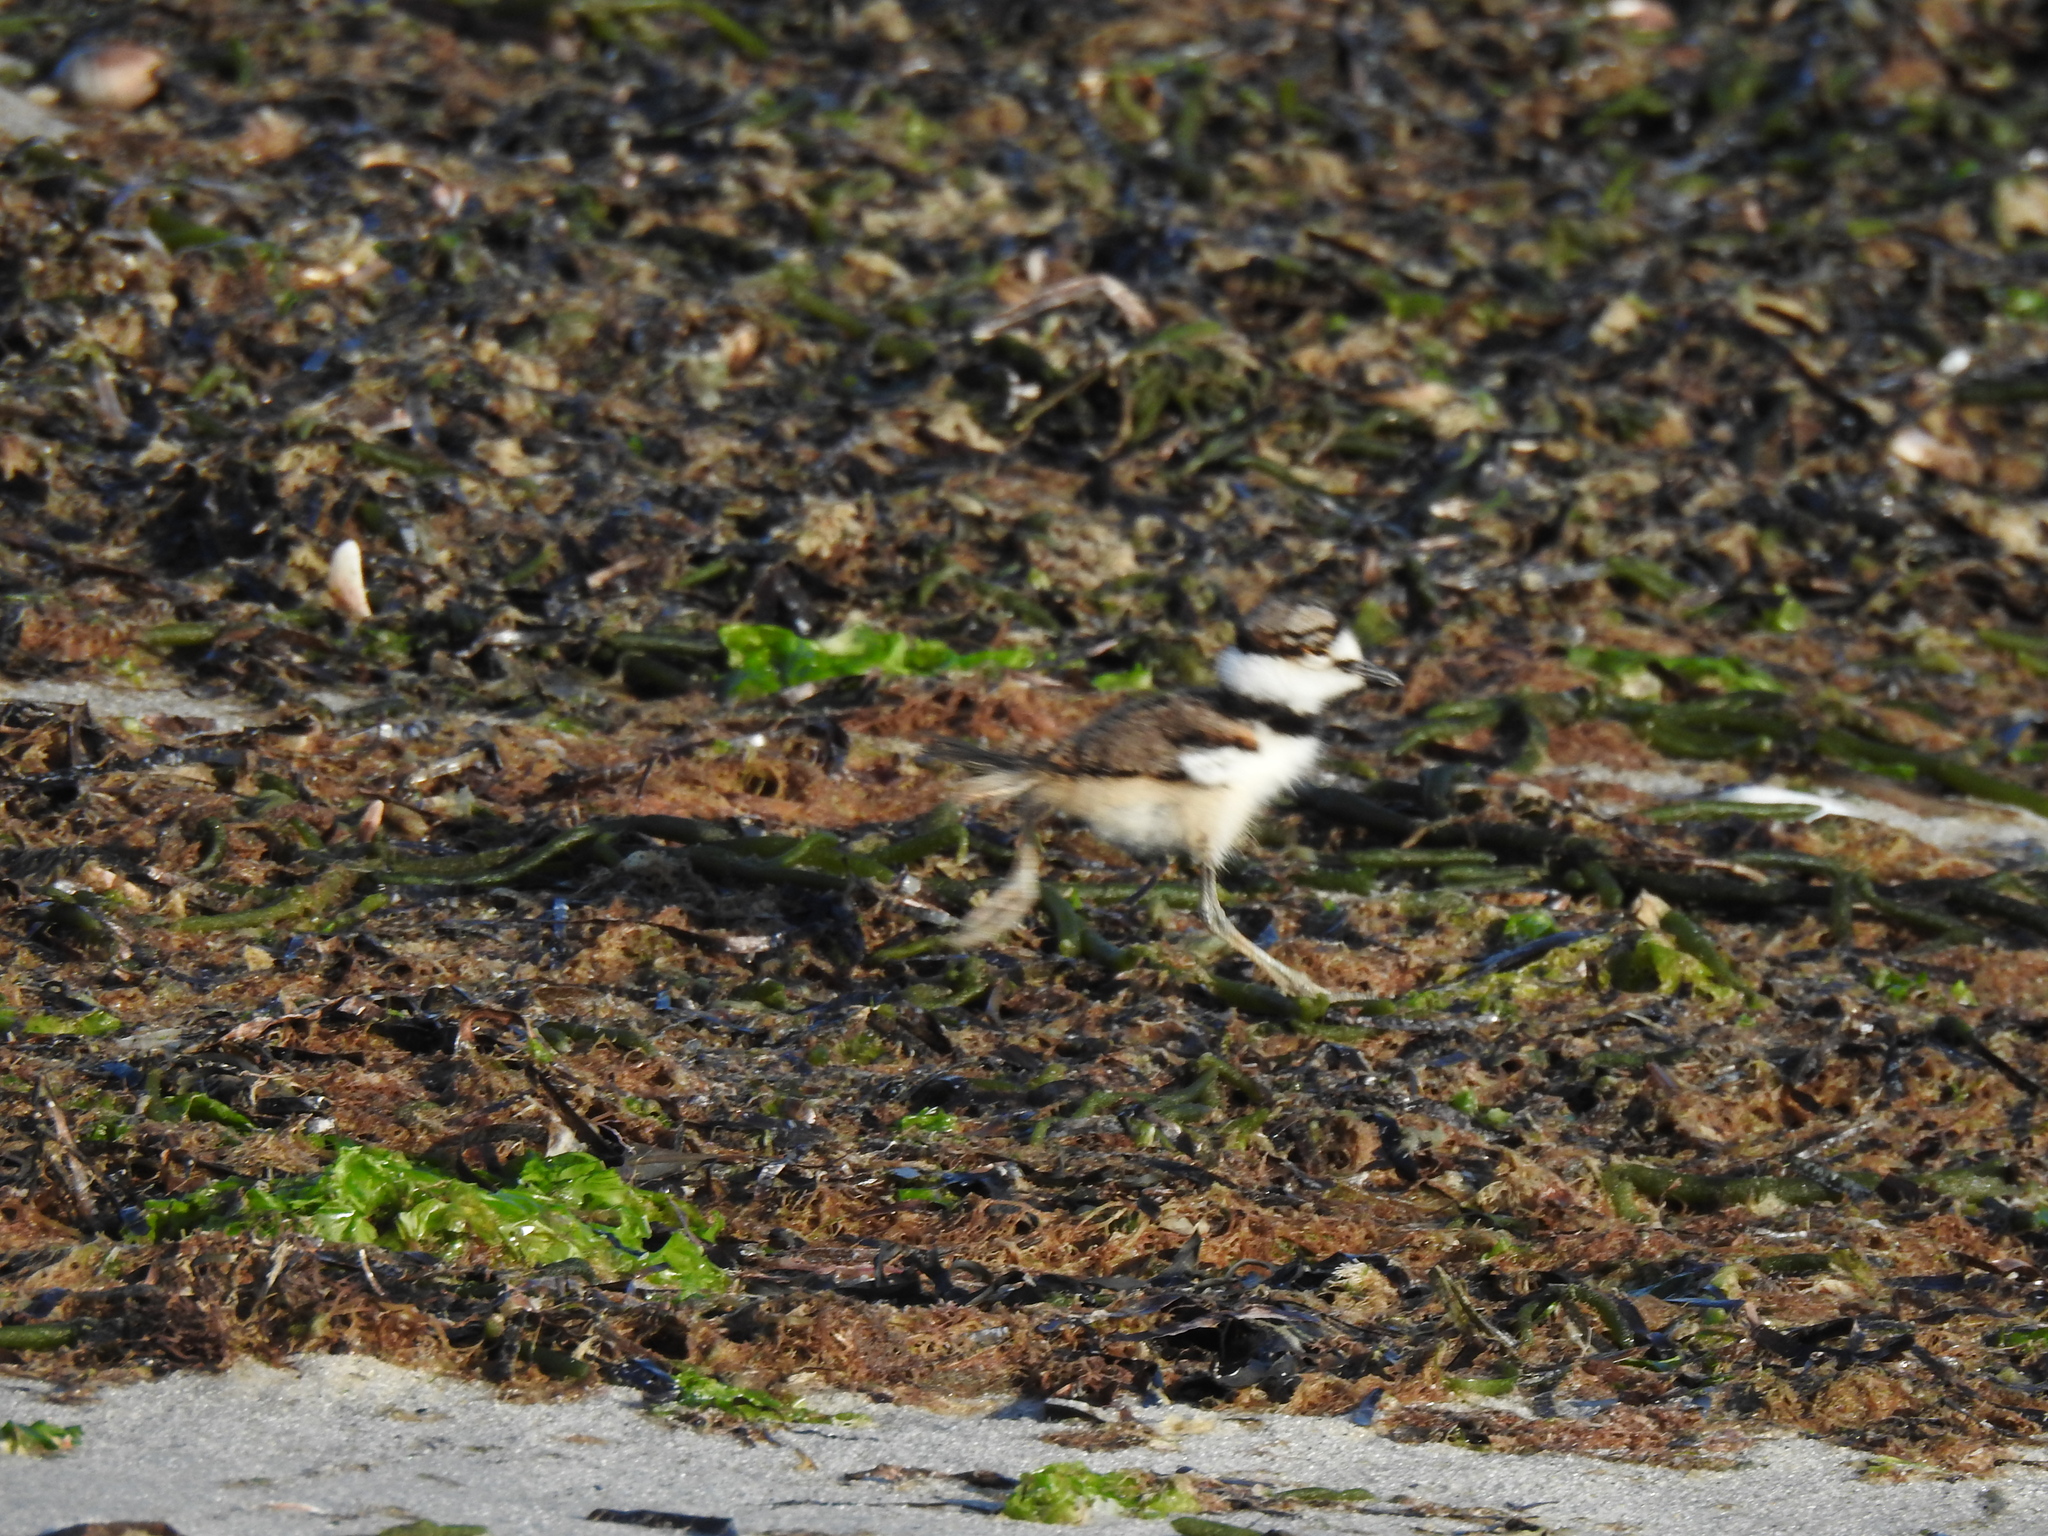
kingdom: Animalia
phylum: Chordata
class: Aves
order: Charadriiformes
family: Charadriidae
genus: Charadrius
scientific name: Charadrius vociferus
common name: Killdeer
